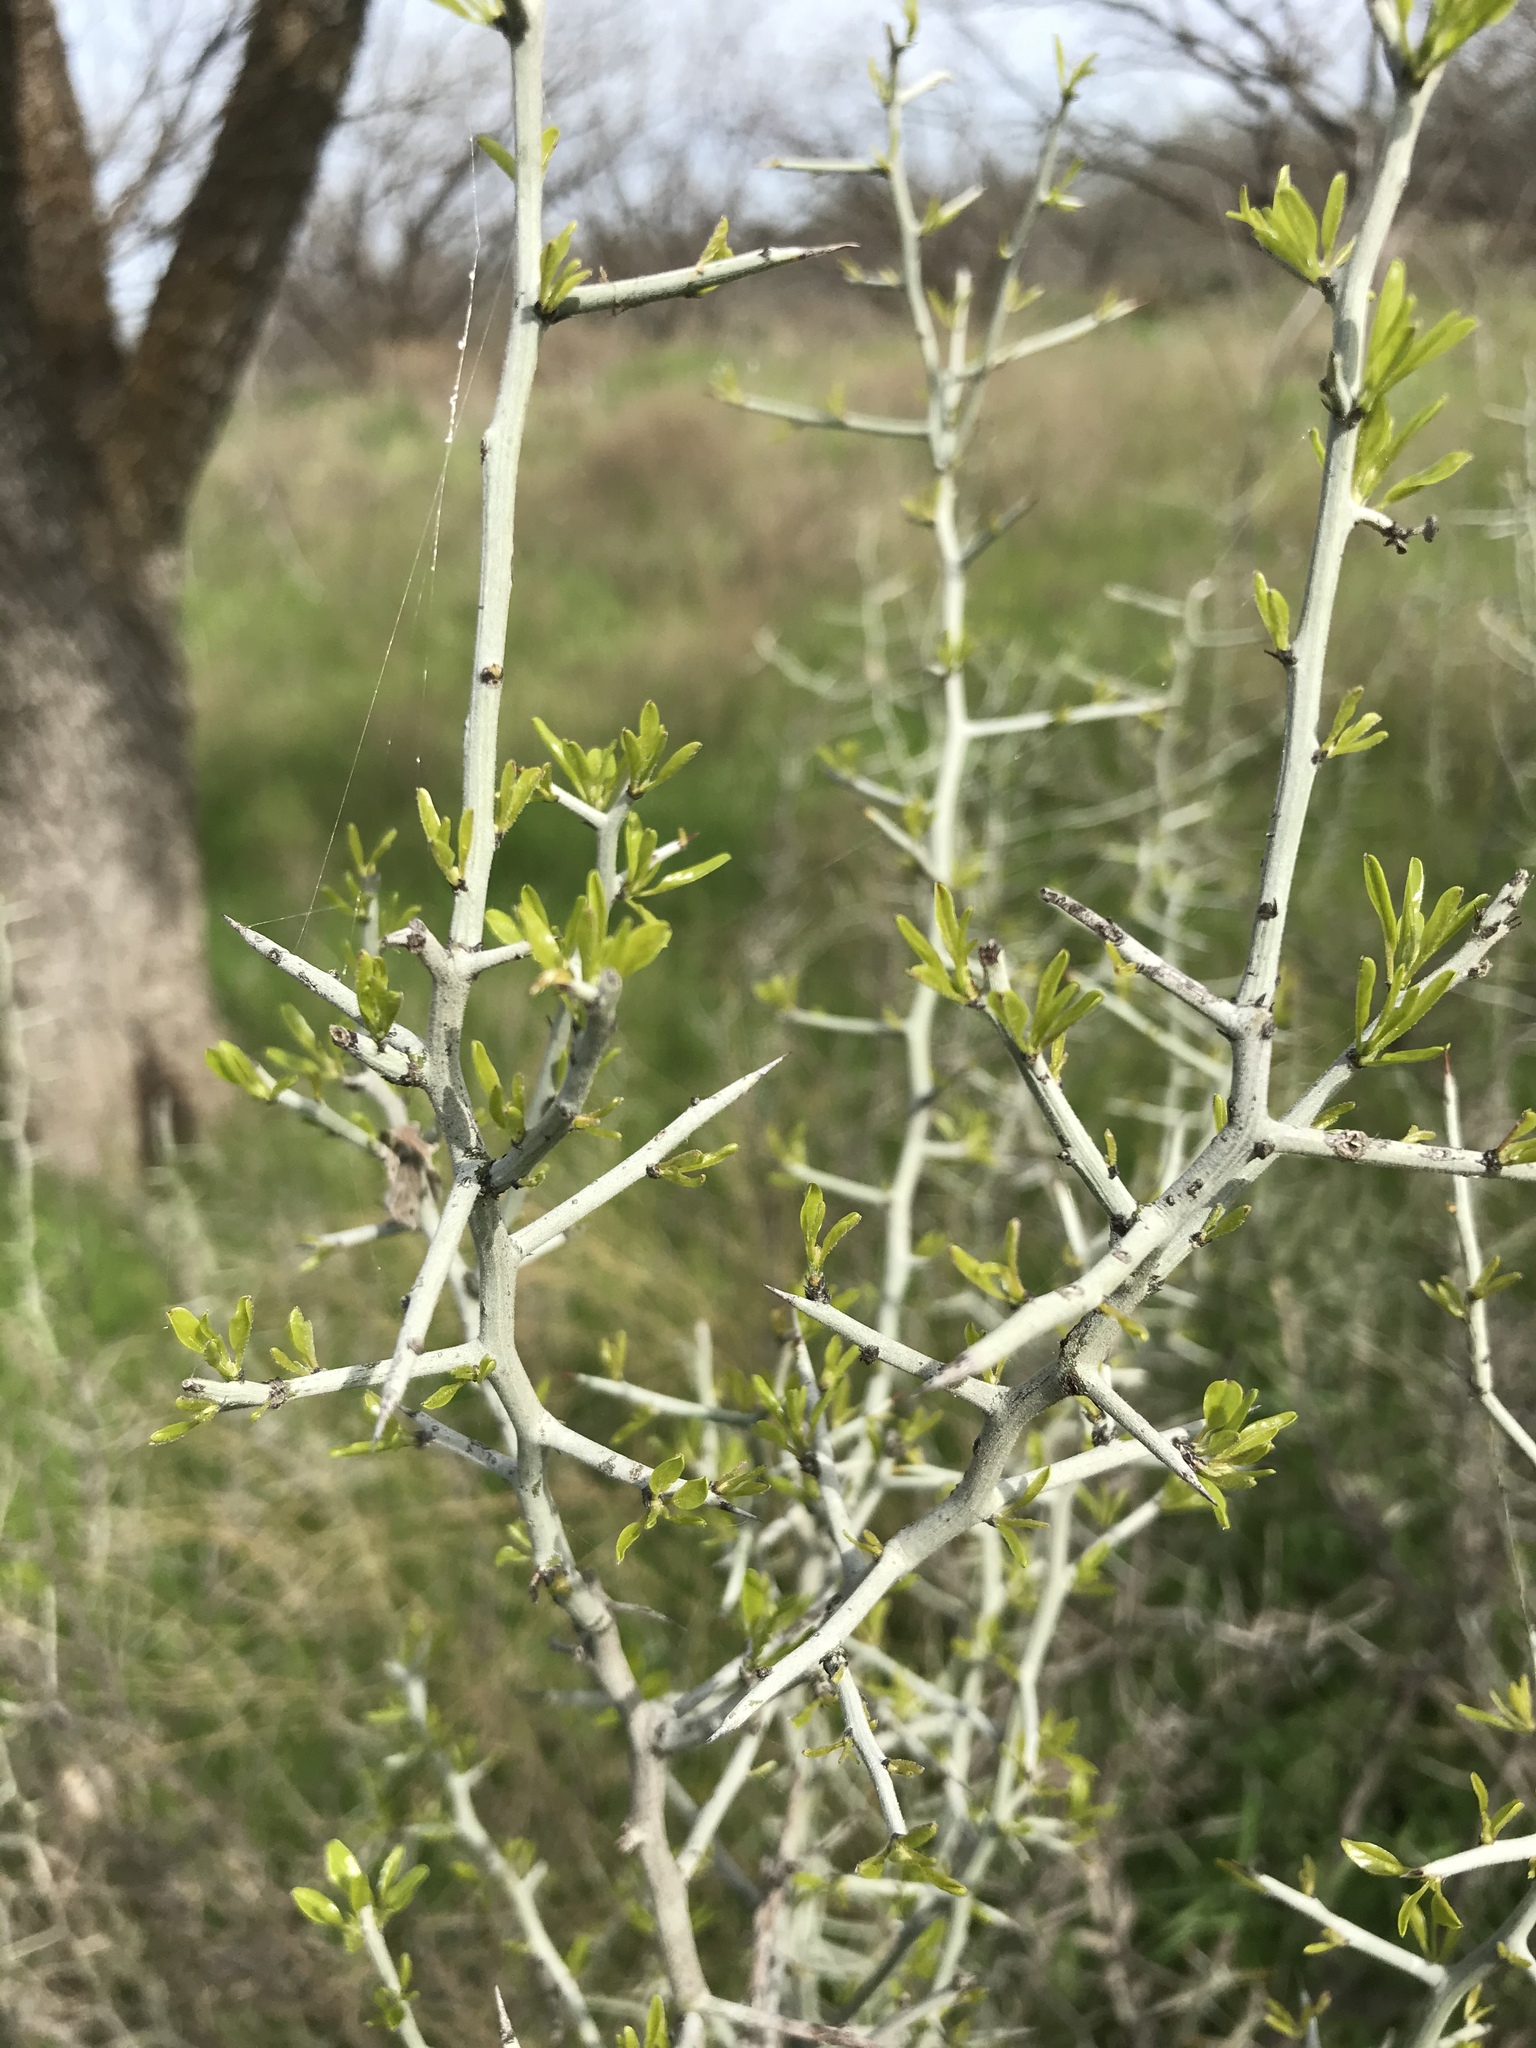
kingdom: Plantae
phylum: Tracheophyta
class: Magnoliopsida
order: Rosales
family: Rhamnaceae
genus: Sarcomphalus
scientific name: Sarcomphalus obtusifolius
